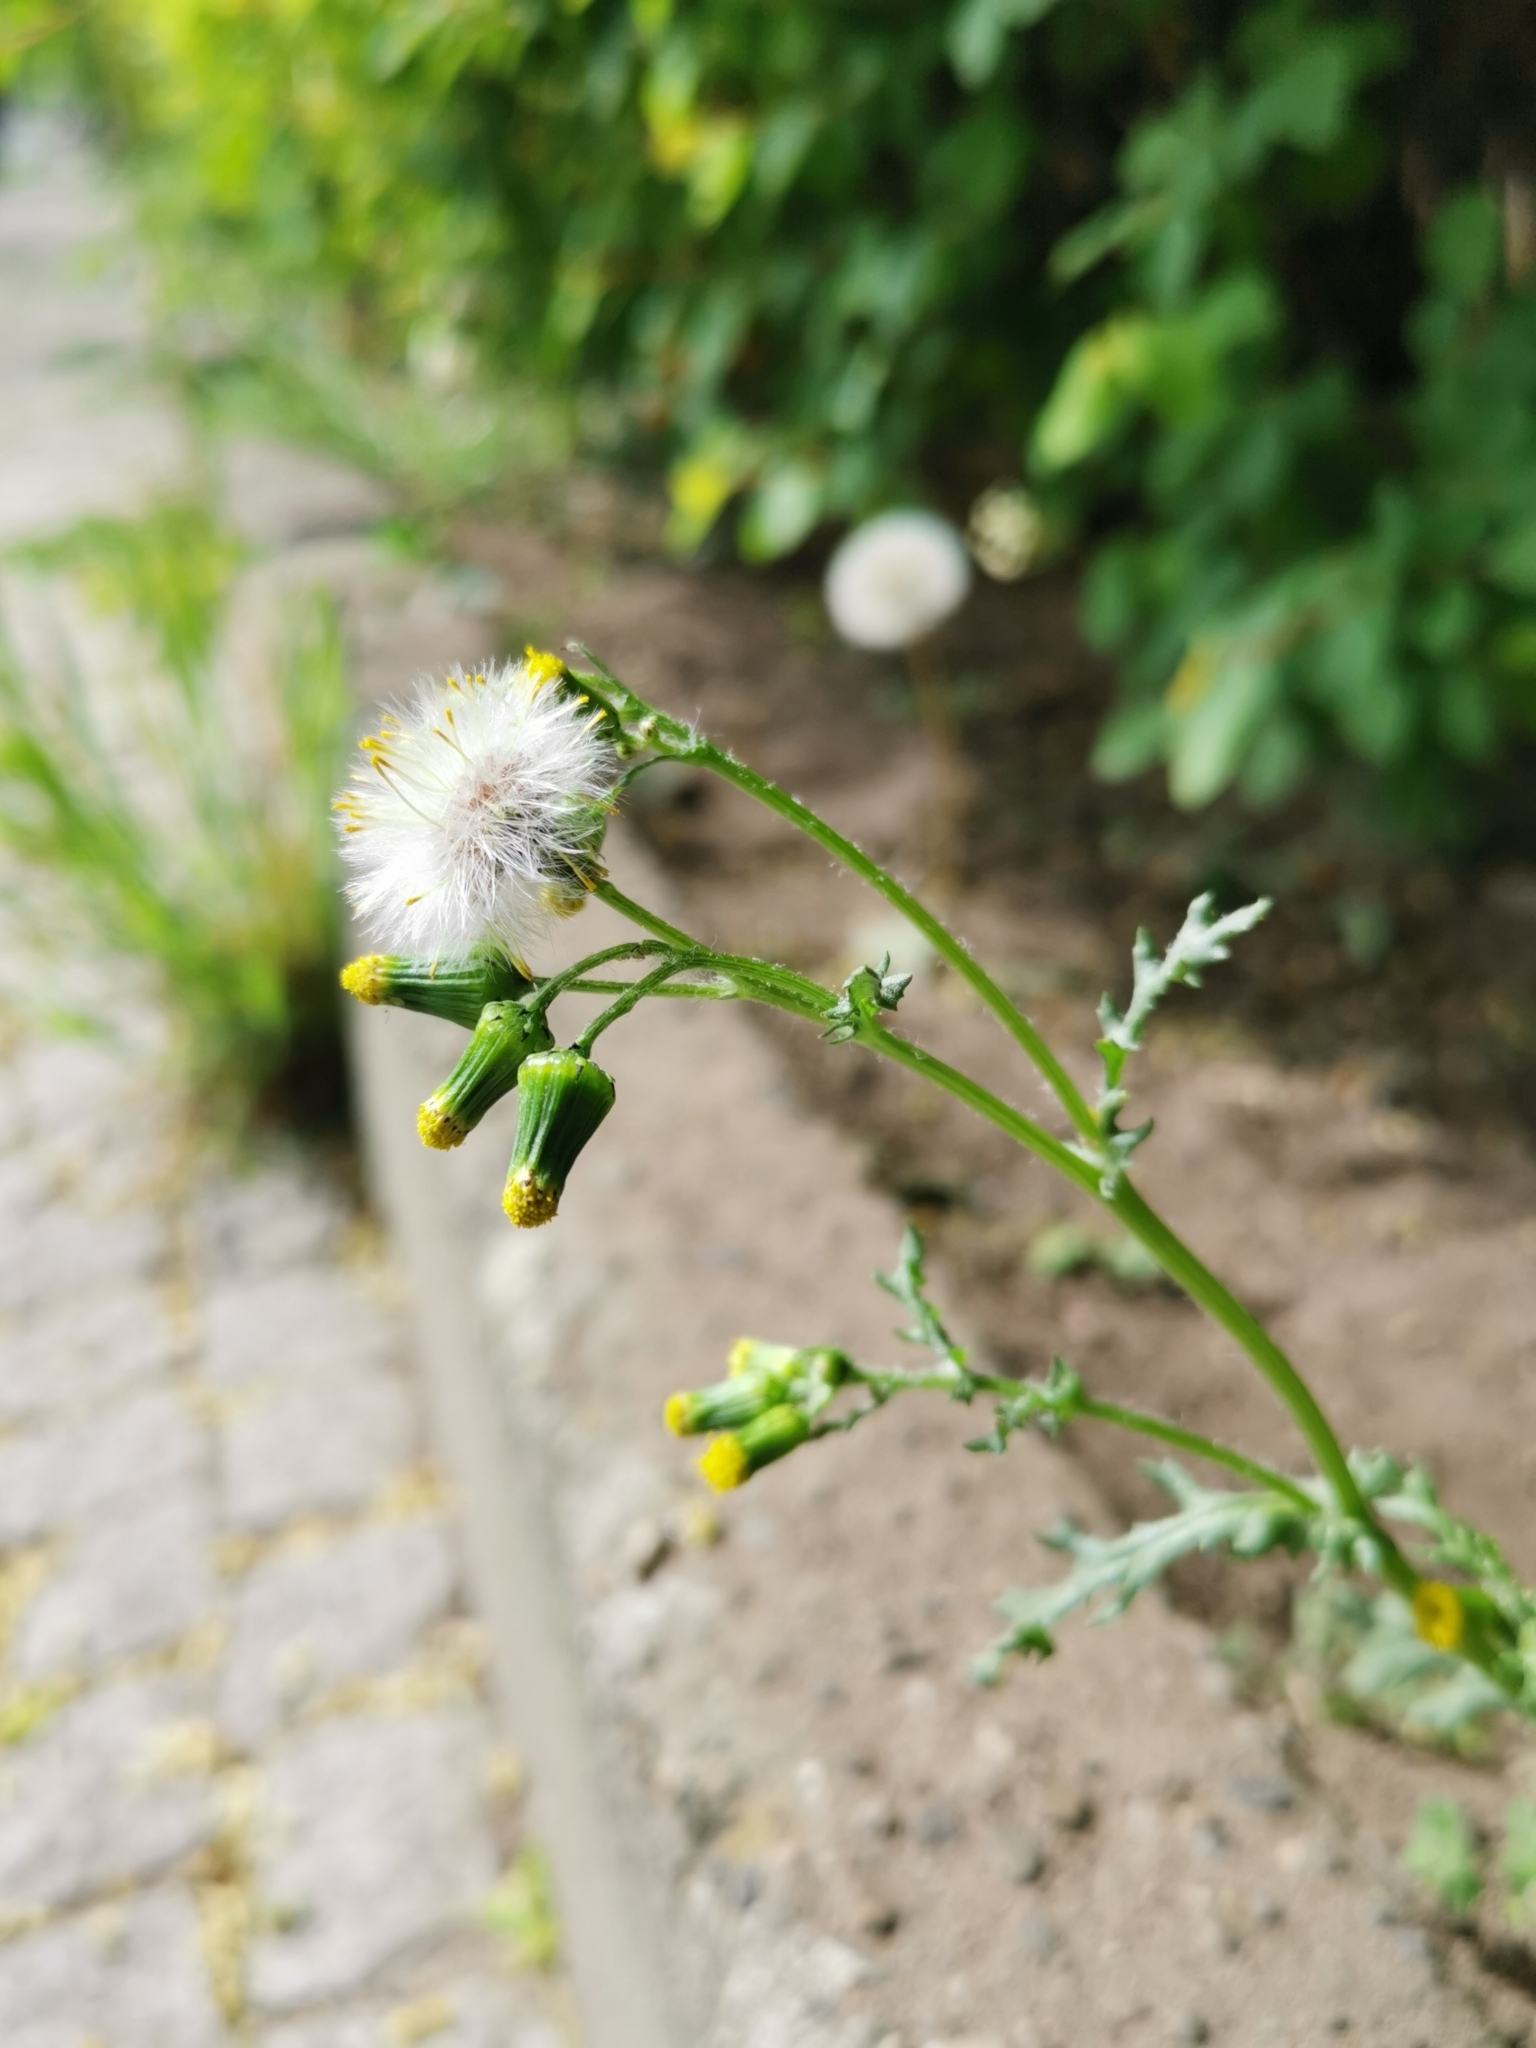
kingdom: Plantae
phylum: Tracheophyta
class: Magnoliopsida
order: Asterales
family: Asteraceae
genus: Senecio
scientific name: Senecio vulgaris
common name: Old-man-in-the-spring
